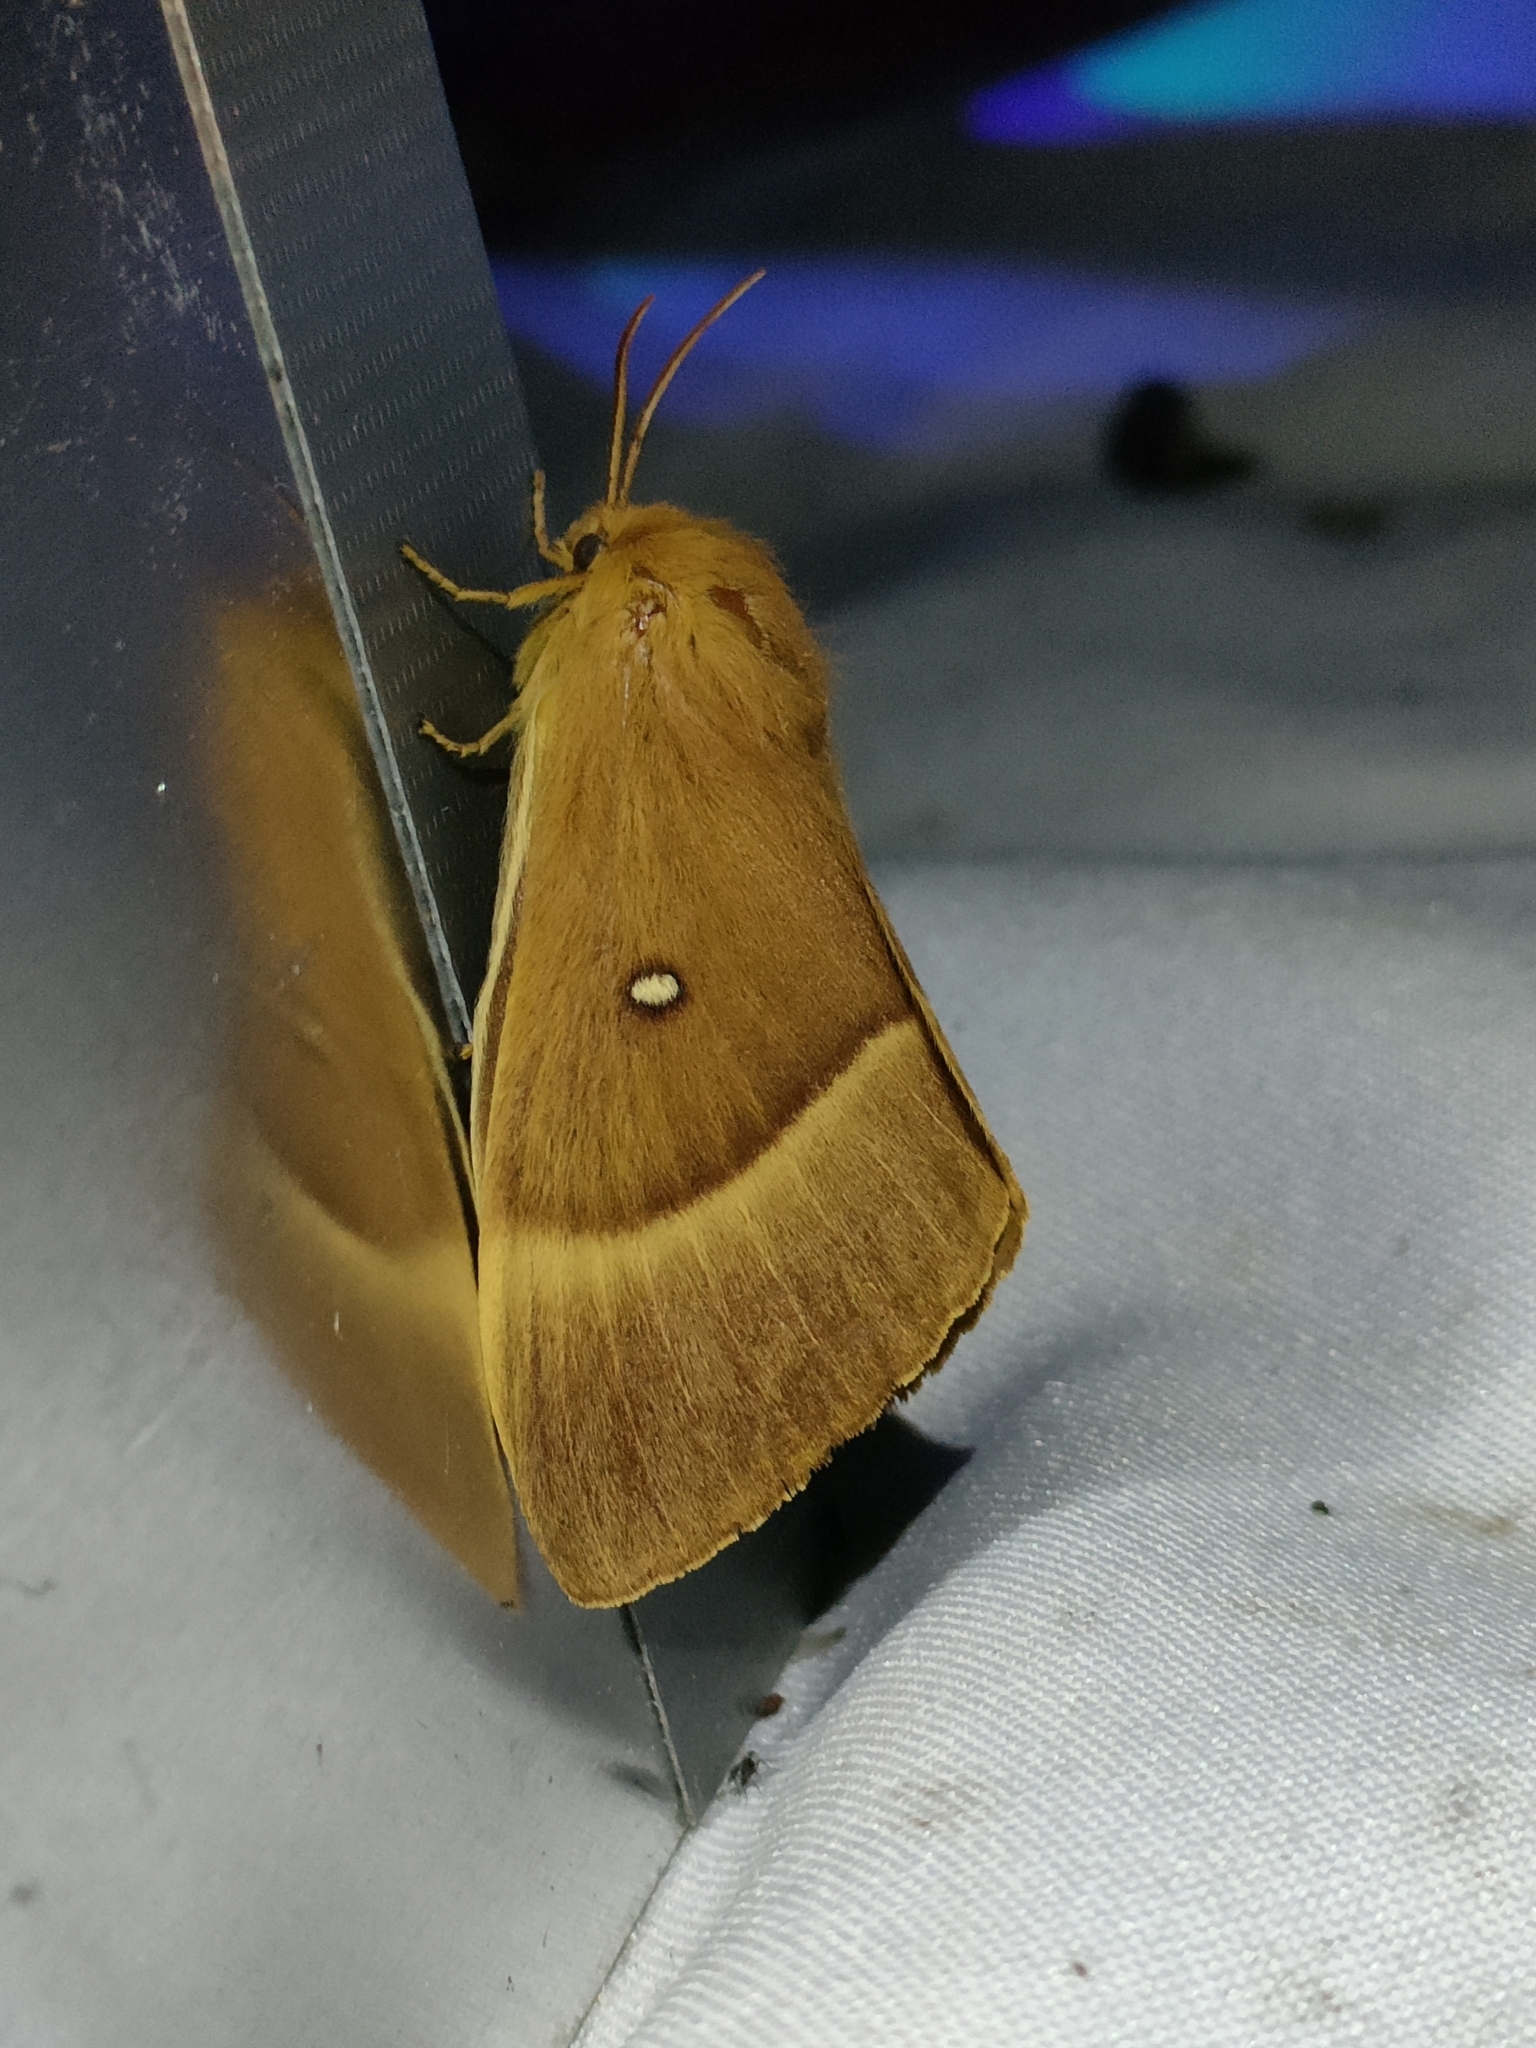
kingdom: Animalia
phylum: Arthropoda
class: Insecta
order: Lepidoptera
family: Lasiocampidae
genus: Lasiocampa
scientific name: Lasiocampa quercus
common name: Oak eggar
